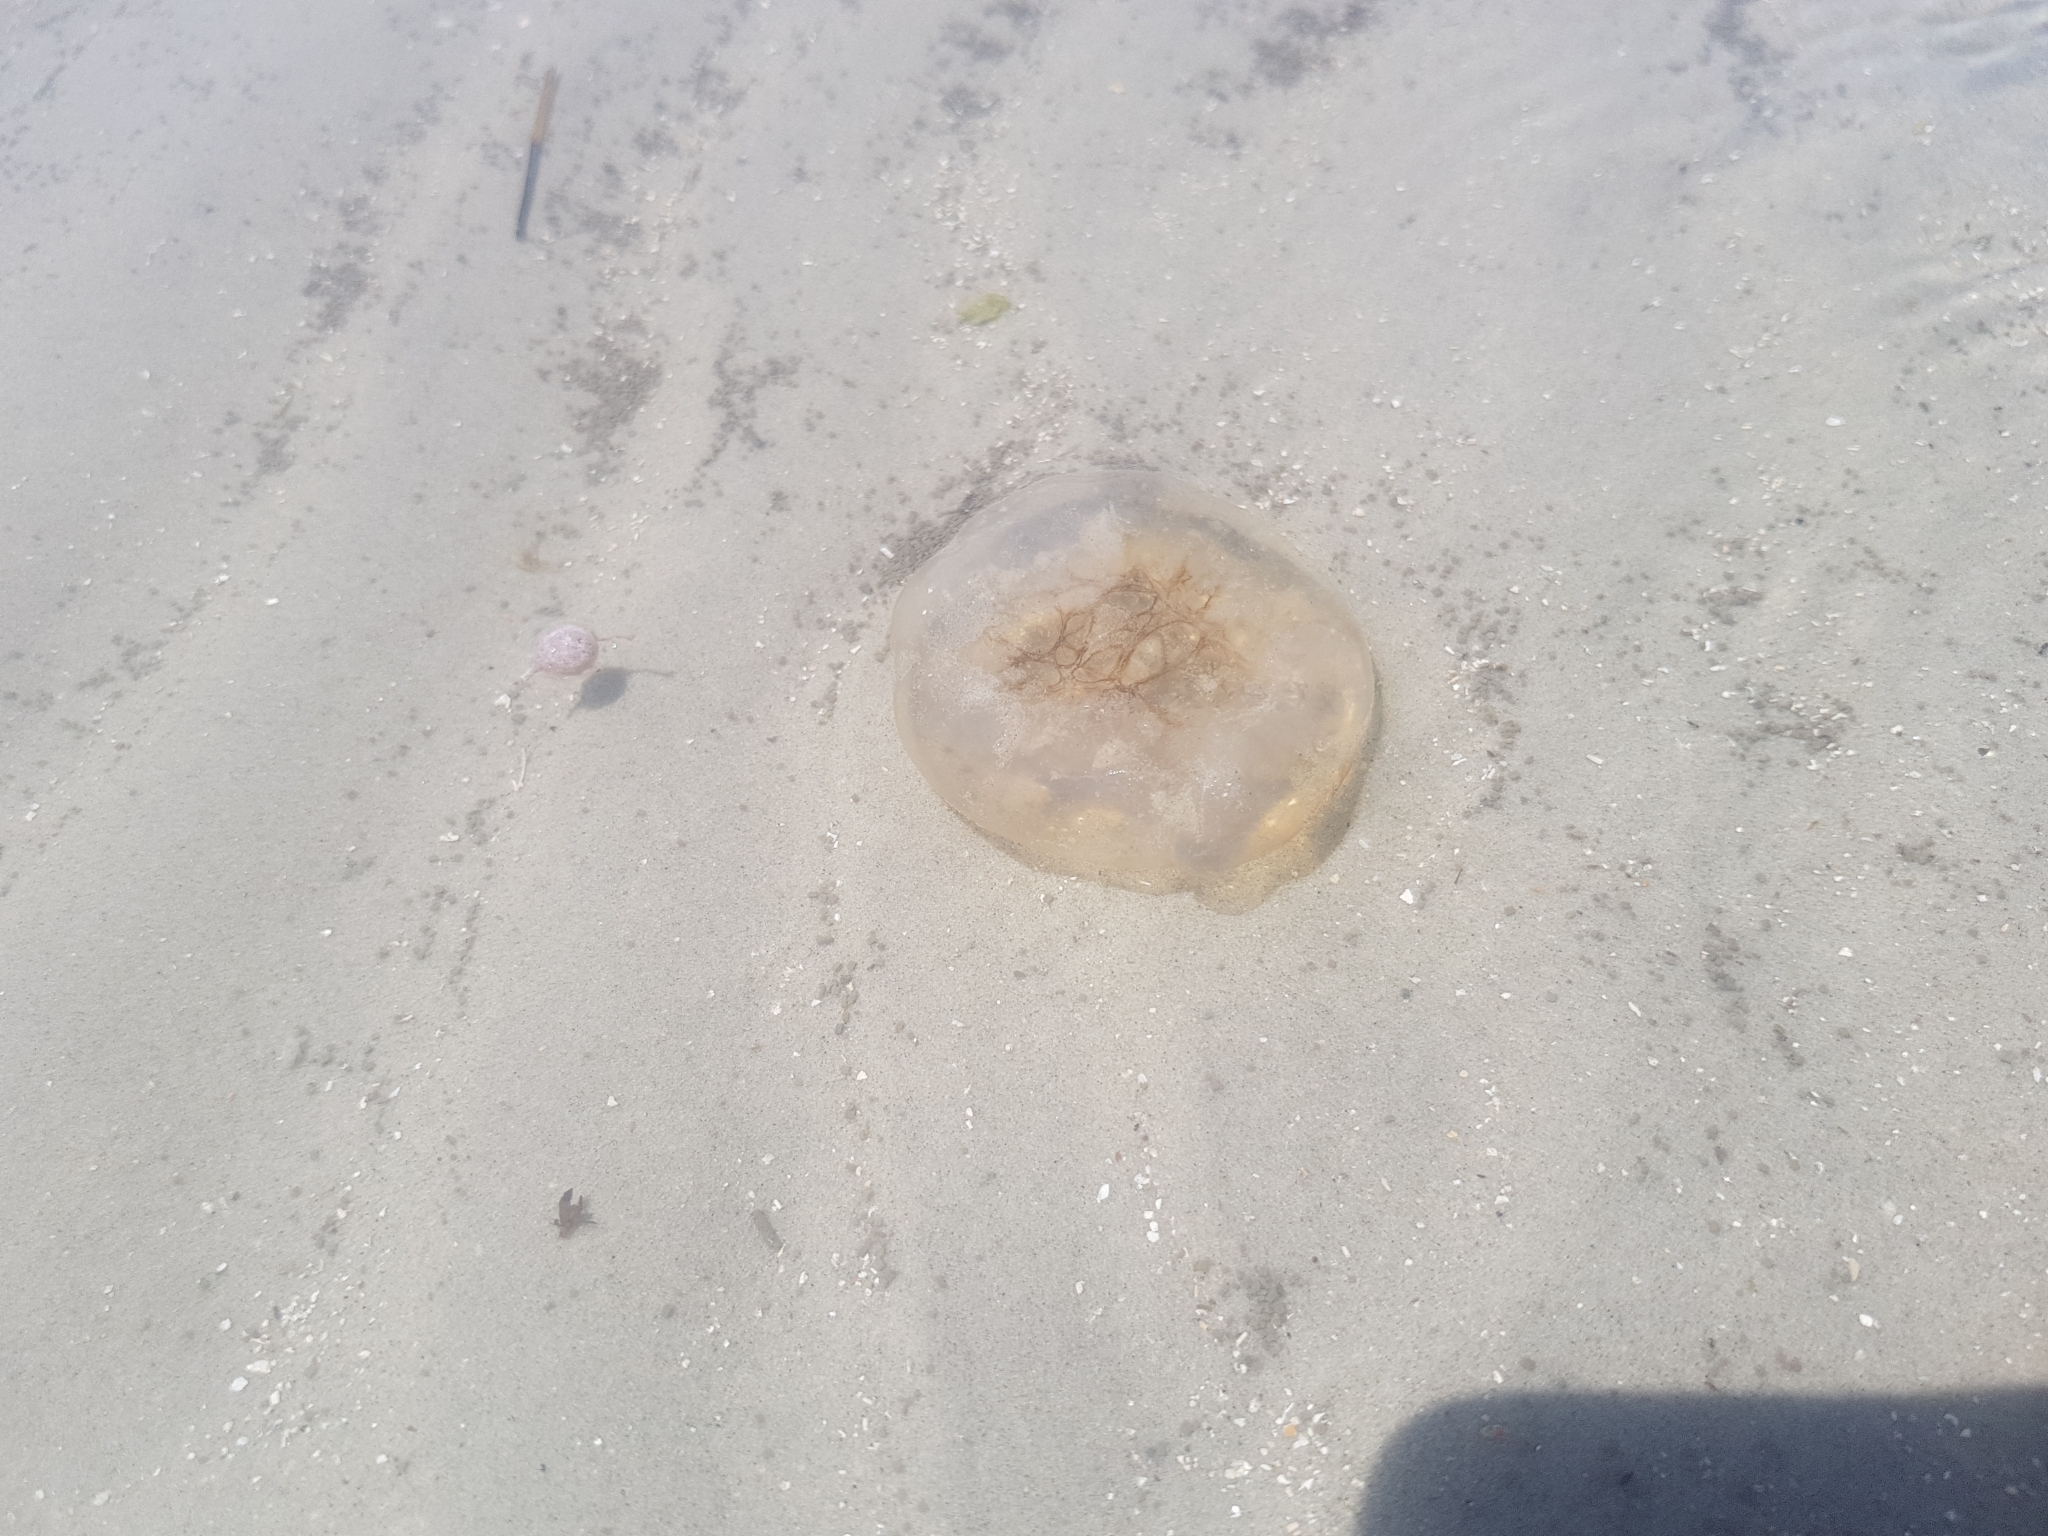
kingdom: Animalia
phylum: Cnidaria
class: Scyphozoa
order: Rhizostomeae
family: Lychnorhizidae
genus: Pseudorhiza
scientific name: Pseudorhiza haeckeli
